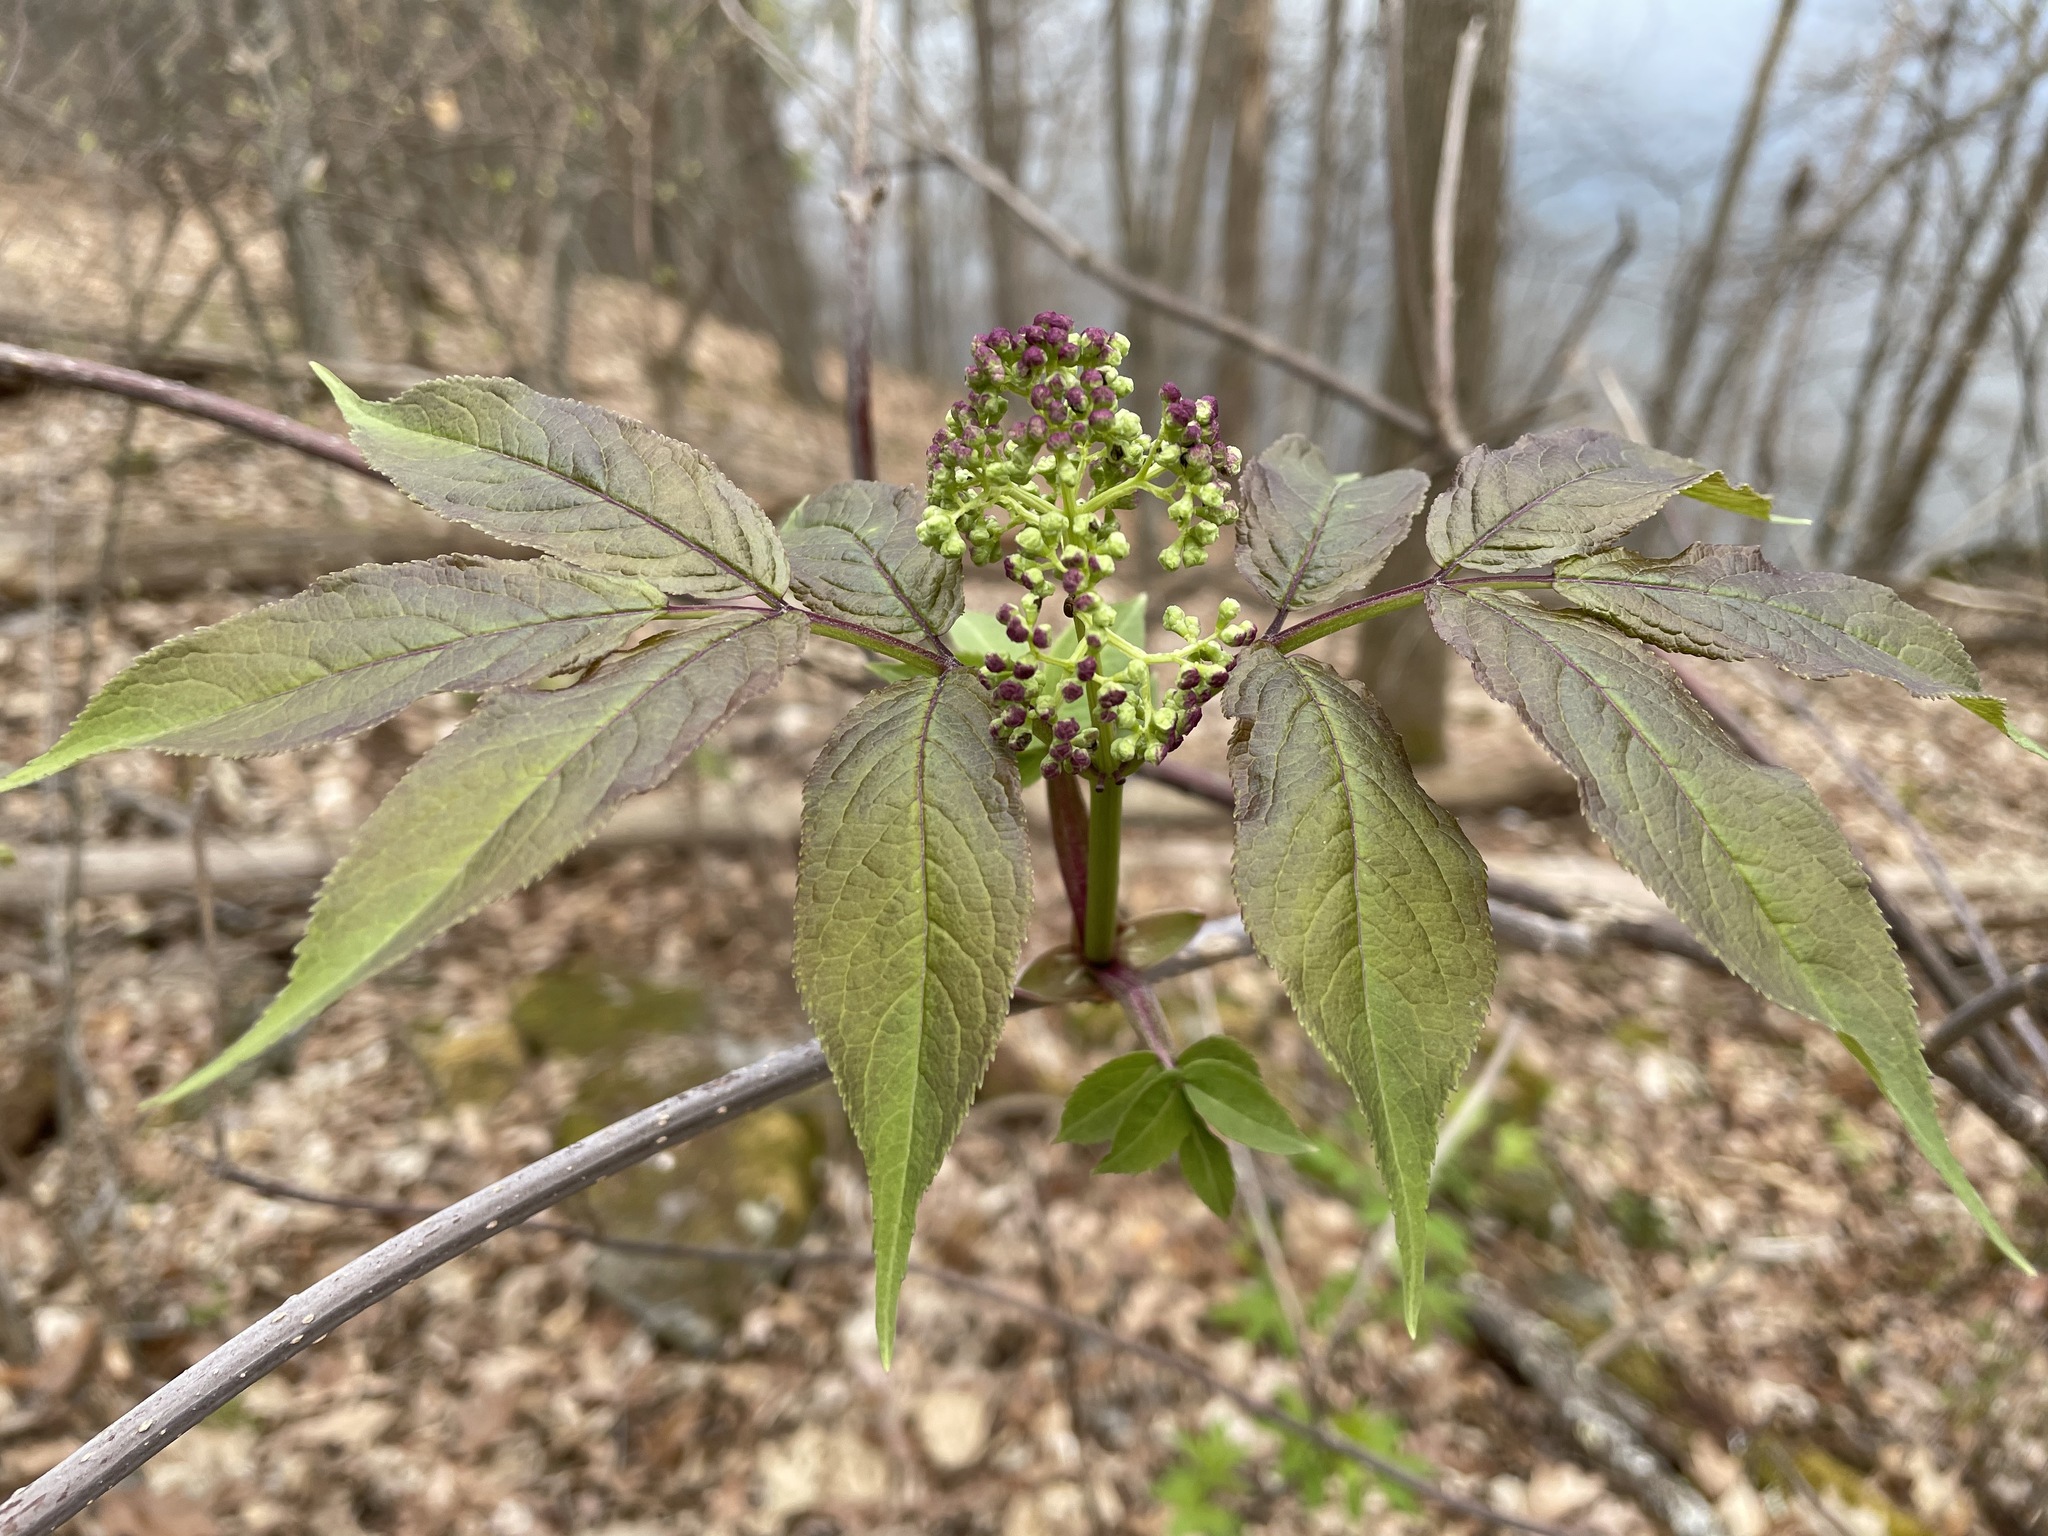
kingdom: Plantae
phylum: Tracheophyta
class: Magnoliopsida
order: Dipsacales
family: Viburnaceae
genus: Sambucus
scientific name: Sambucus racemosa
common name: Red-berried elder
